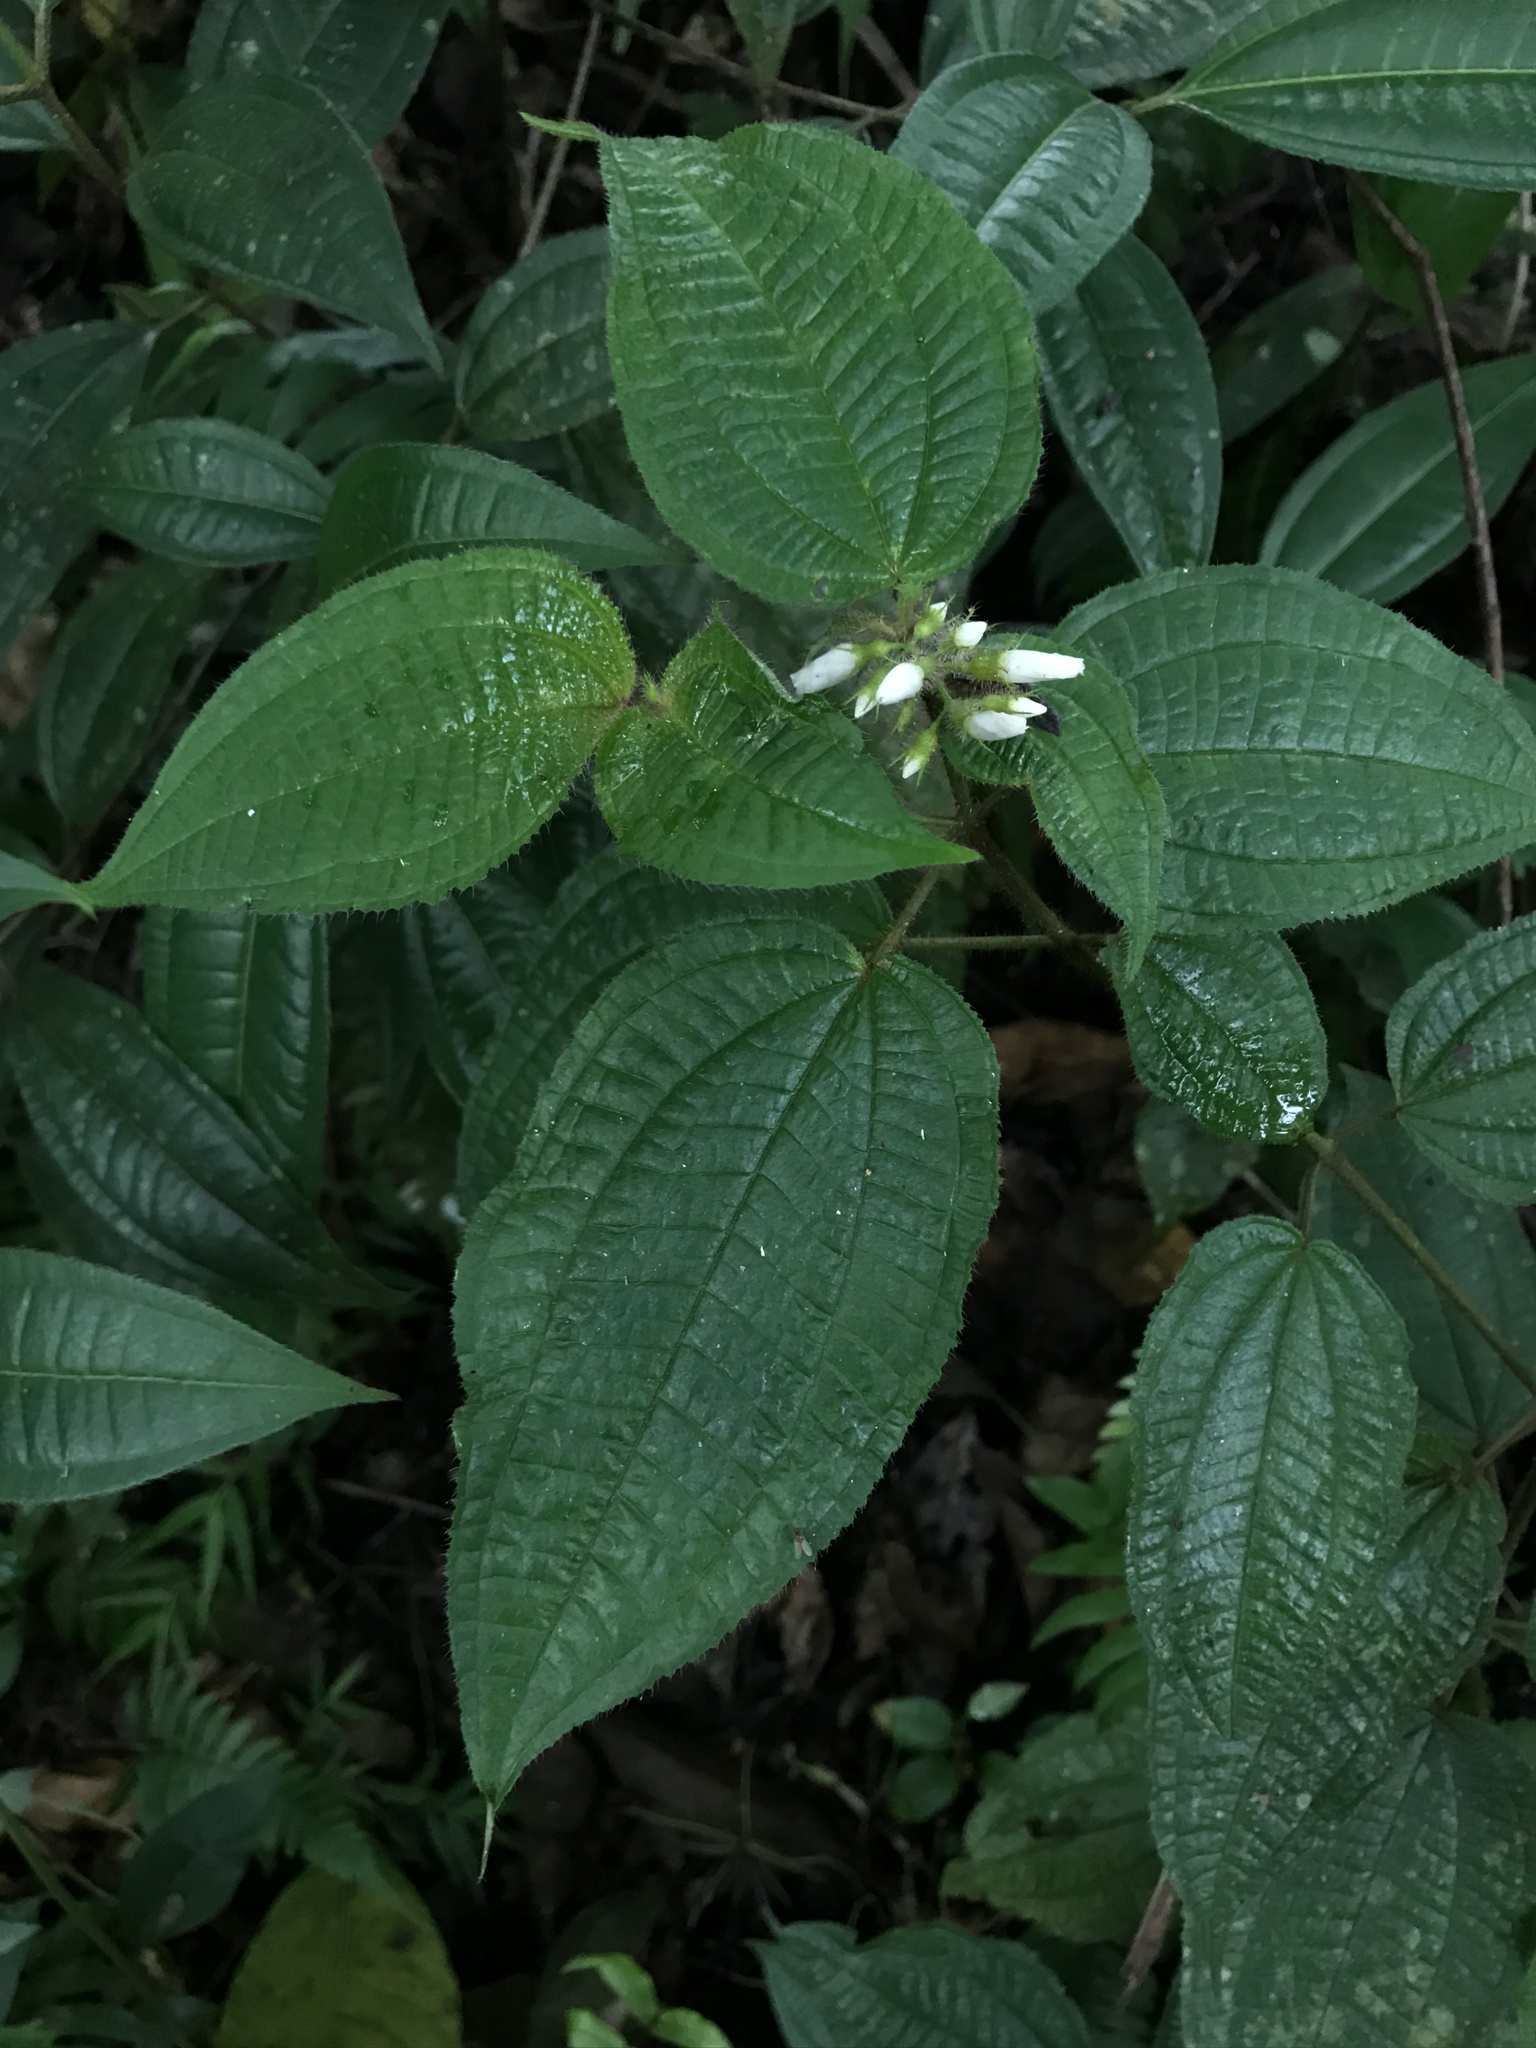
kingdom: Plantae
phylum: Tracheophyta
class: Magnoliopsida
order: Myrtales
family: Melastomataceae
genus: Miconia
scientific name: Miconia crenata
